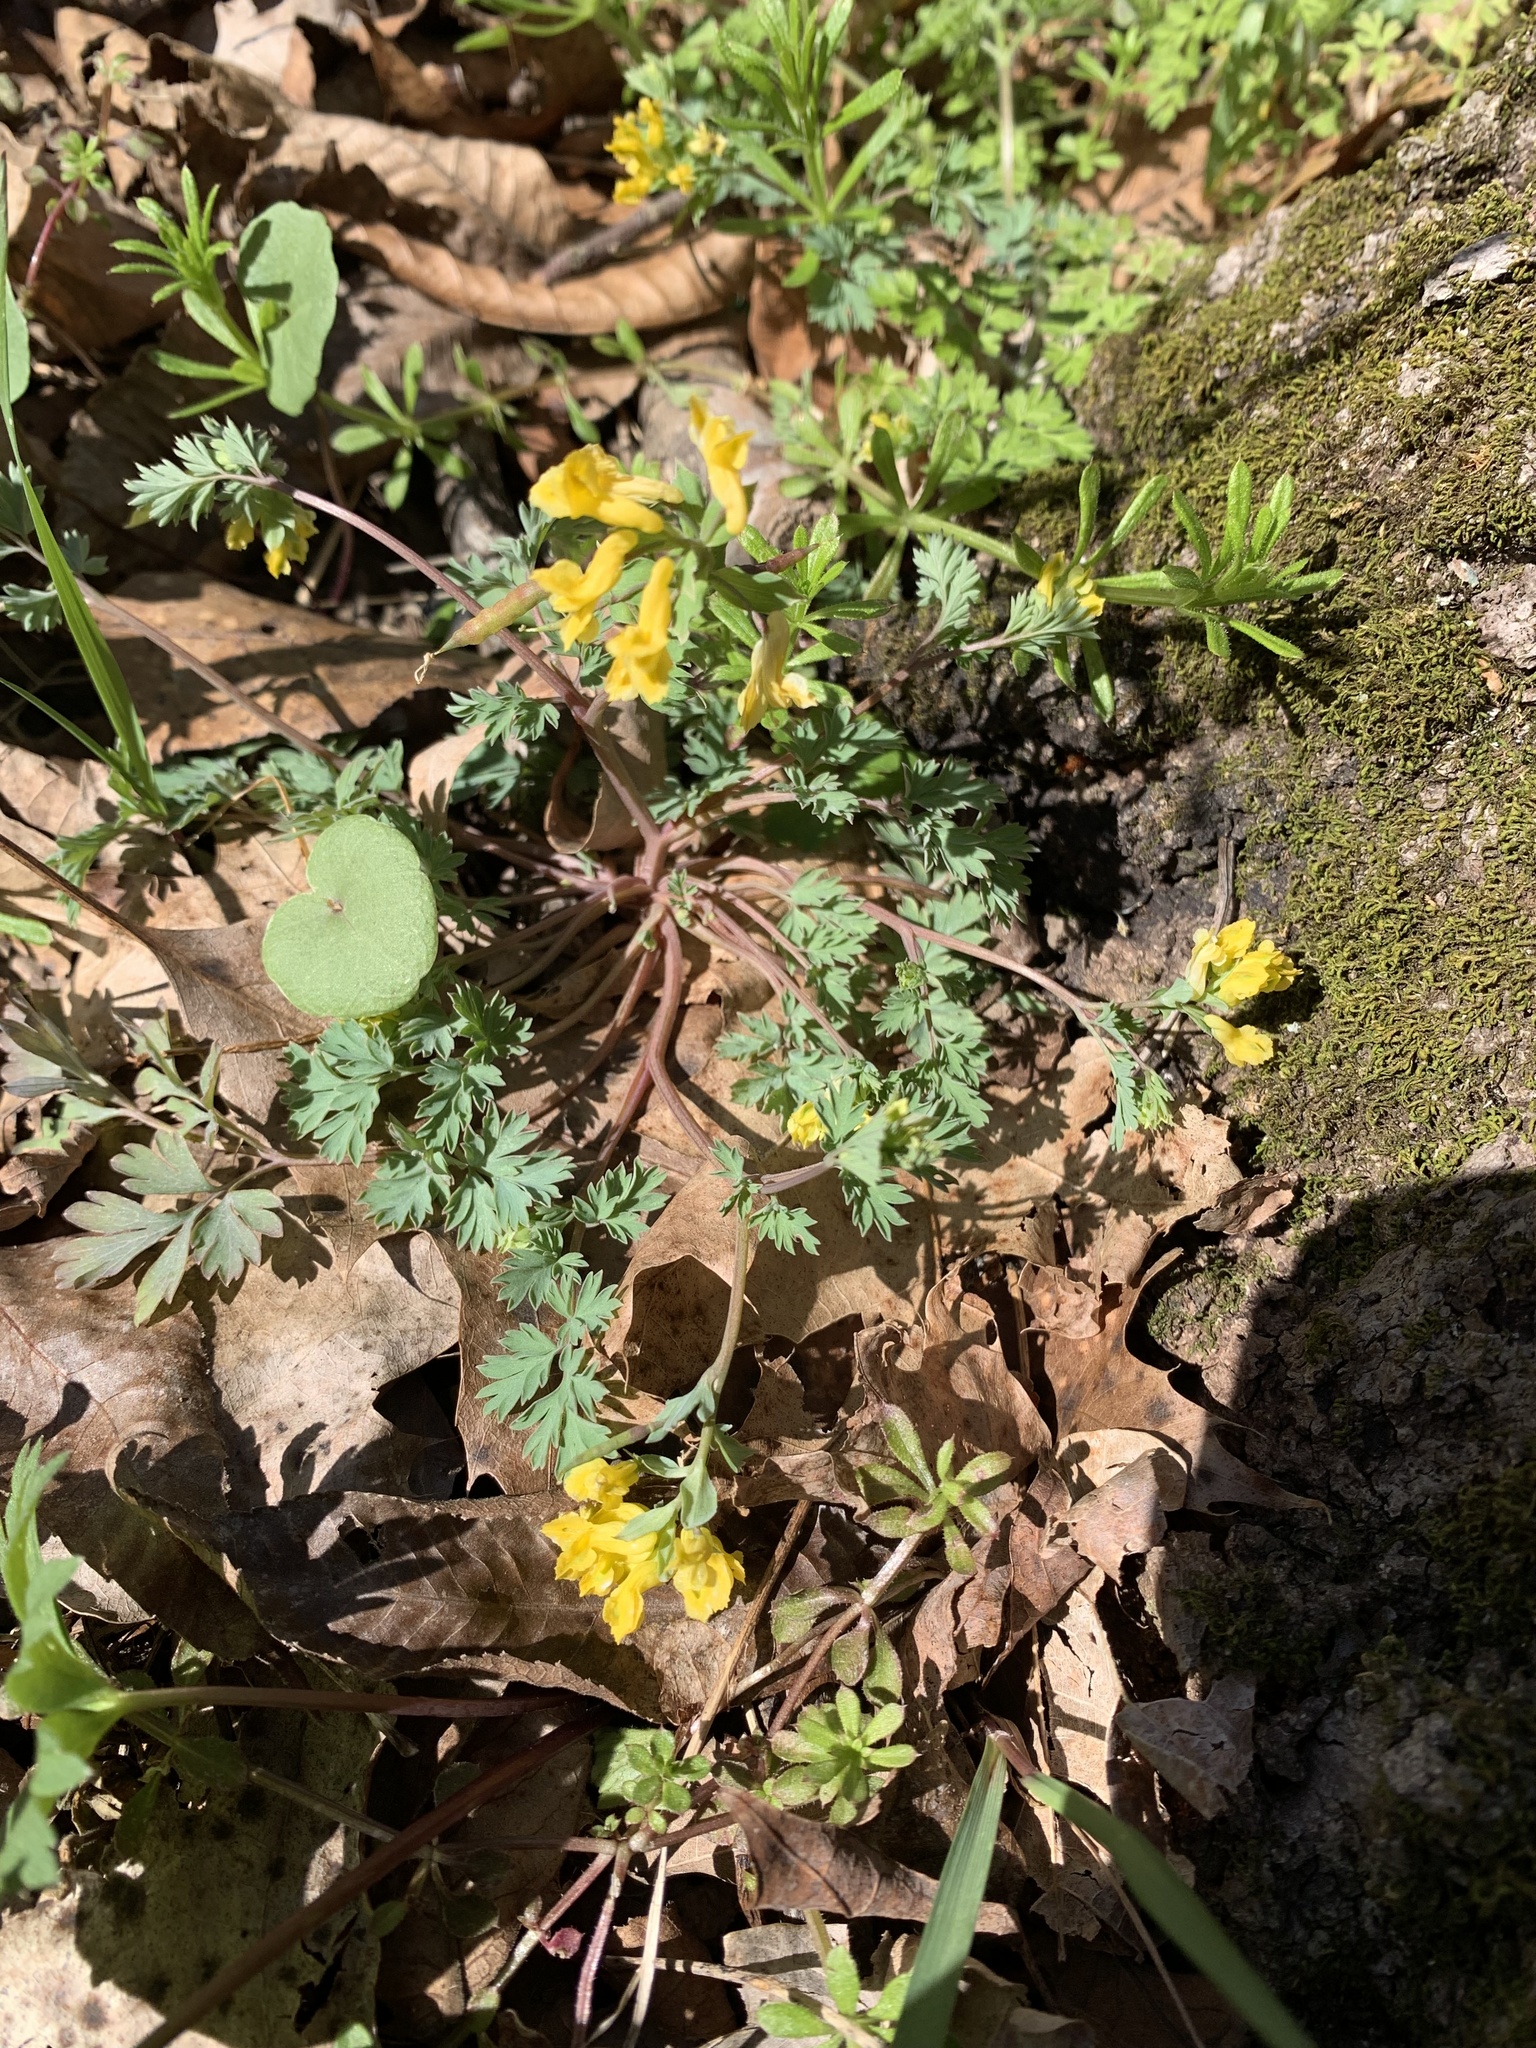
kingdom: Plantae
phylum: Tracheophyta
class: Magnoliopsida
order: Ranunculales
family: Papaveraceae
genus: Corydalis
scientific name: Corydalis flavula
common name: Yellow corydalis
